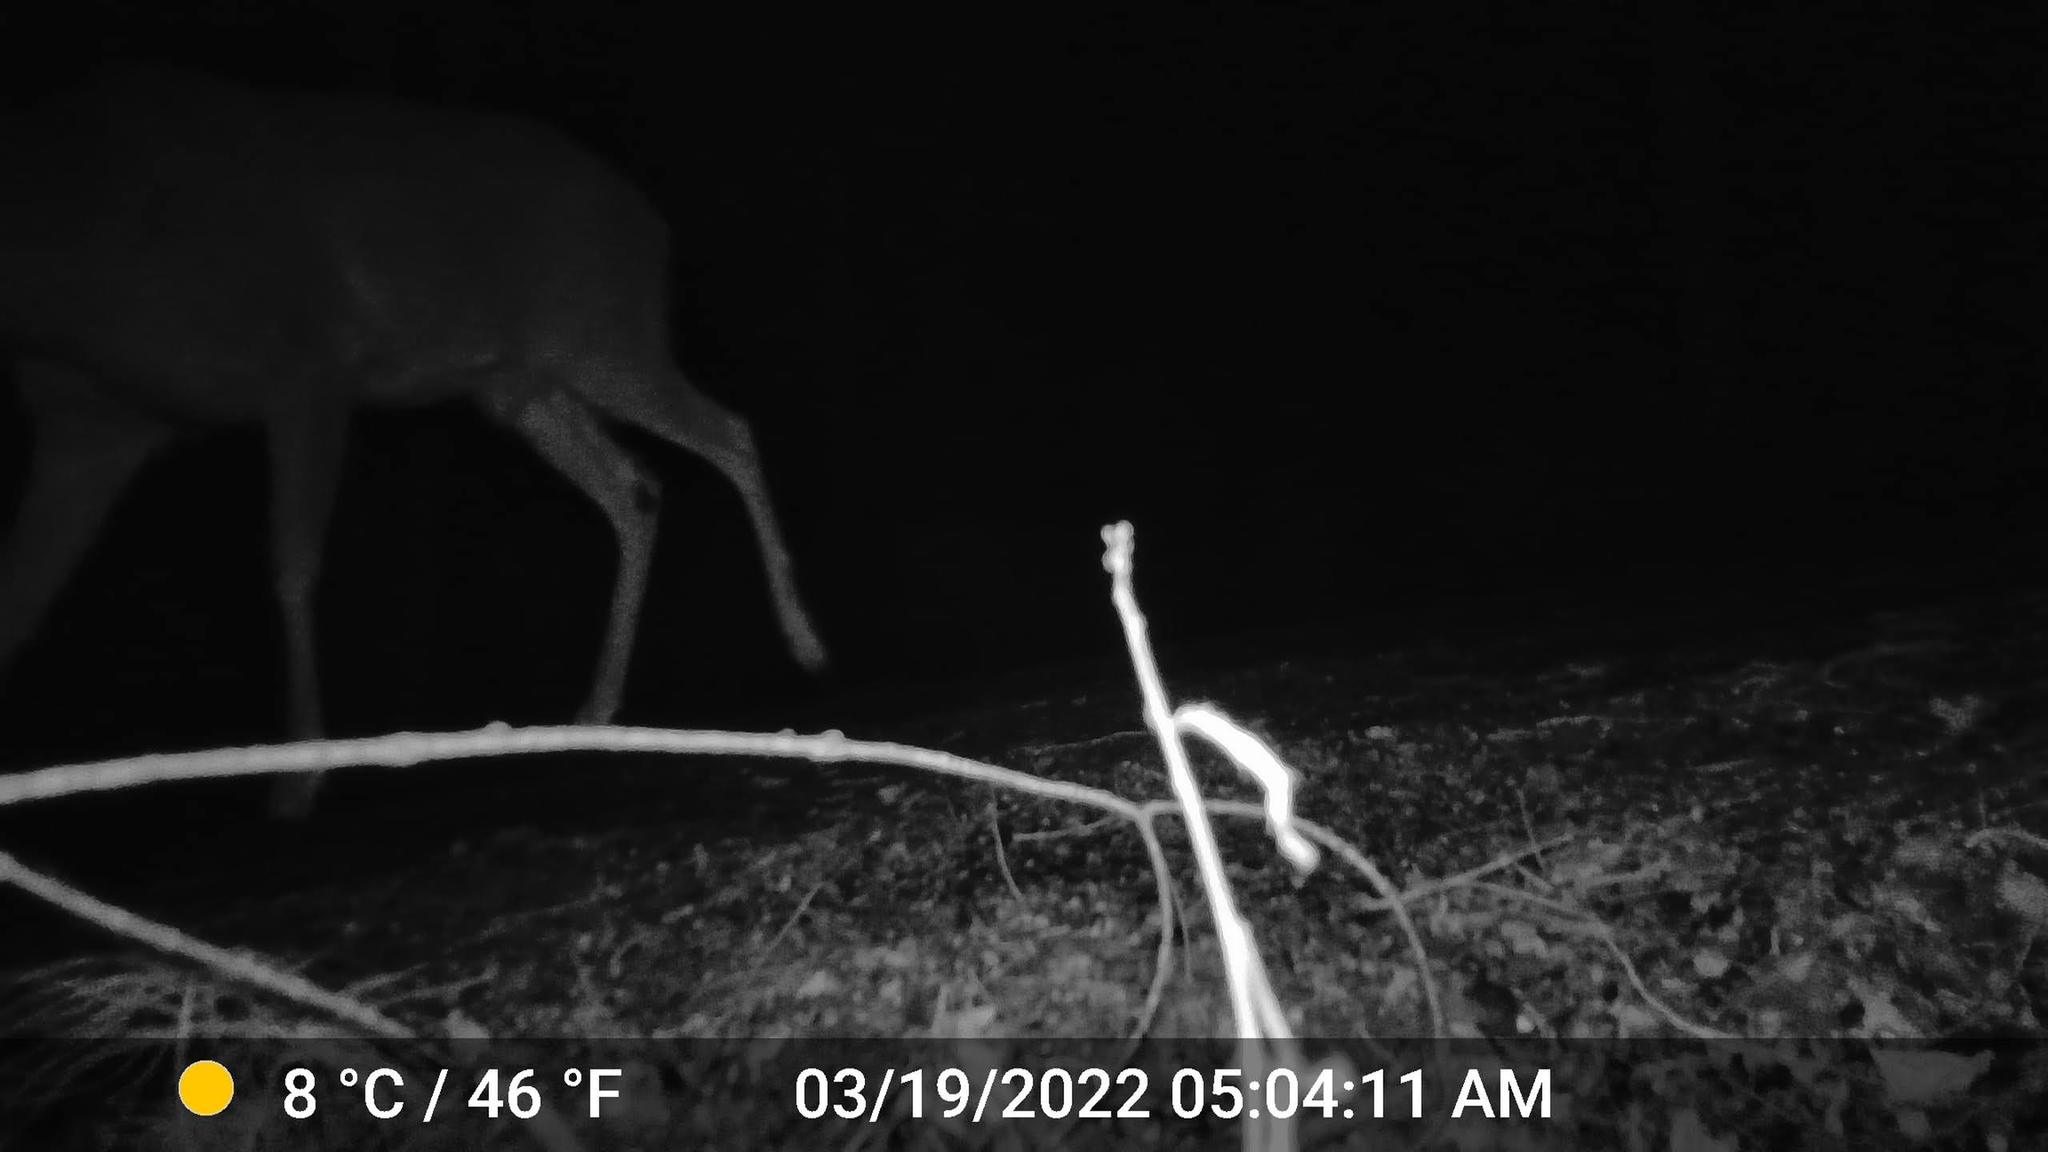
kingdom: Animalia
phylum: Chordata
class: Mammalia
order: Artiodactyla
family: Cervidae
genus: Odocoileus
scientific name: Odocoileus virginianus
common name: White-tailed deer
